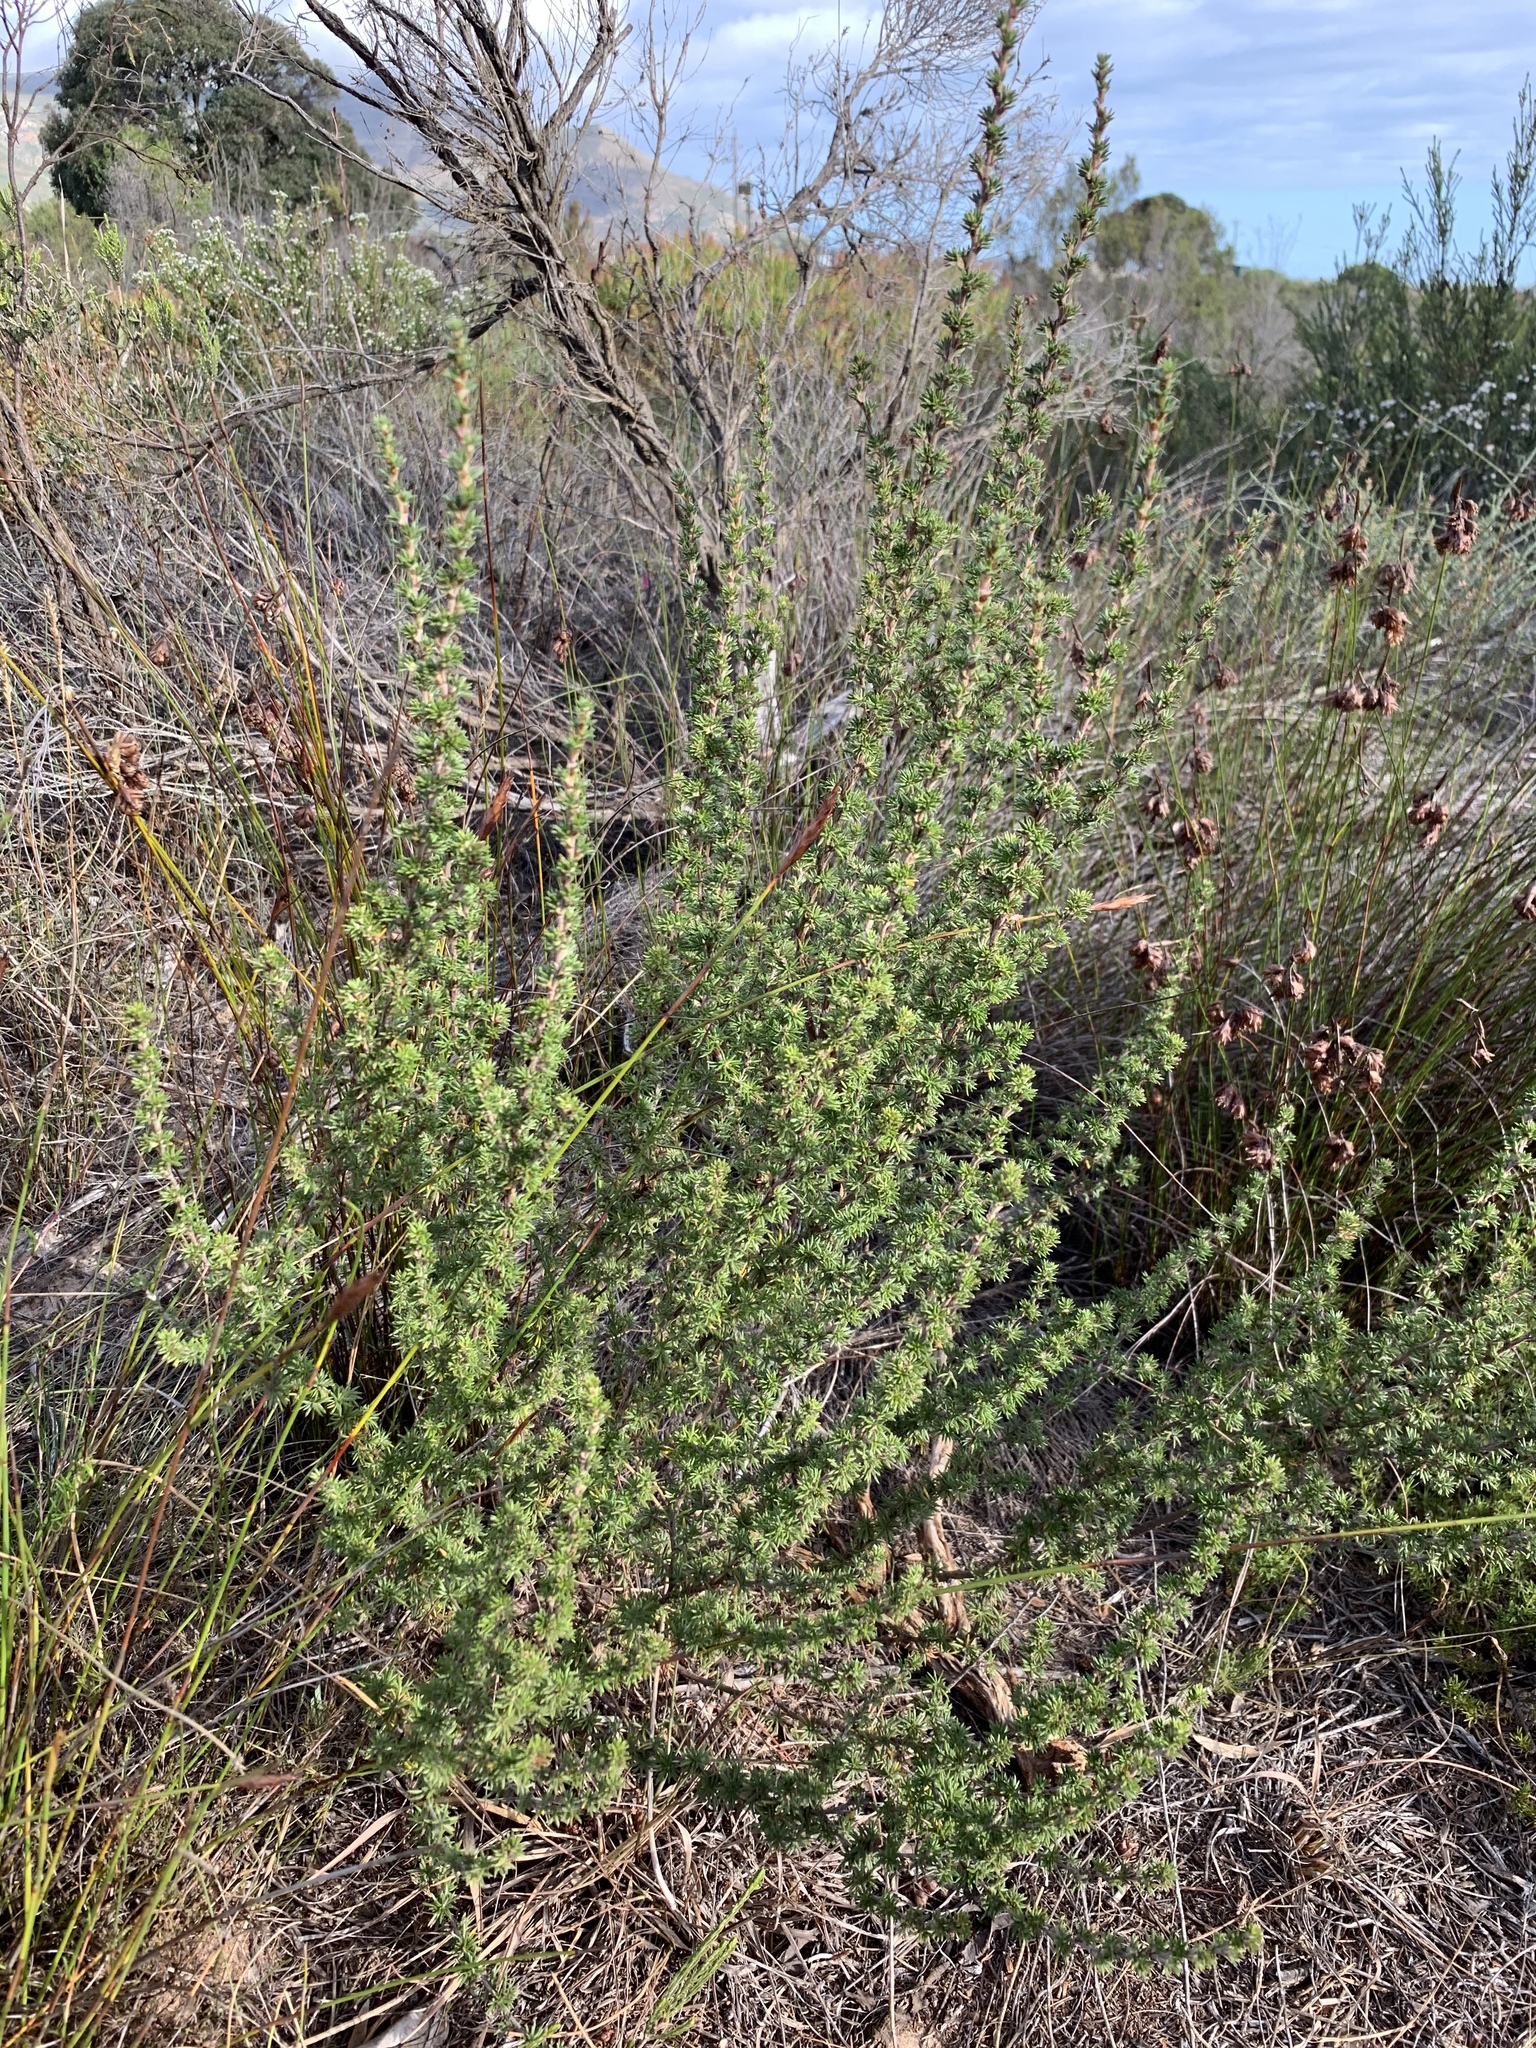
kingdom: Plantae
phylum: Tracheophyta
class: Magnoliopsida
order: Rosales
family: Rosaceae
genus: Cliffortia
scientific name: Cliffortia stricta
